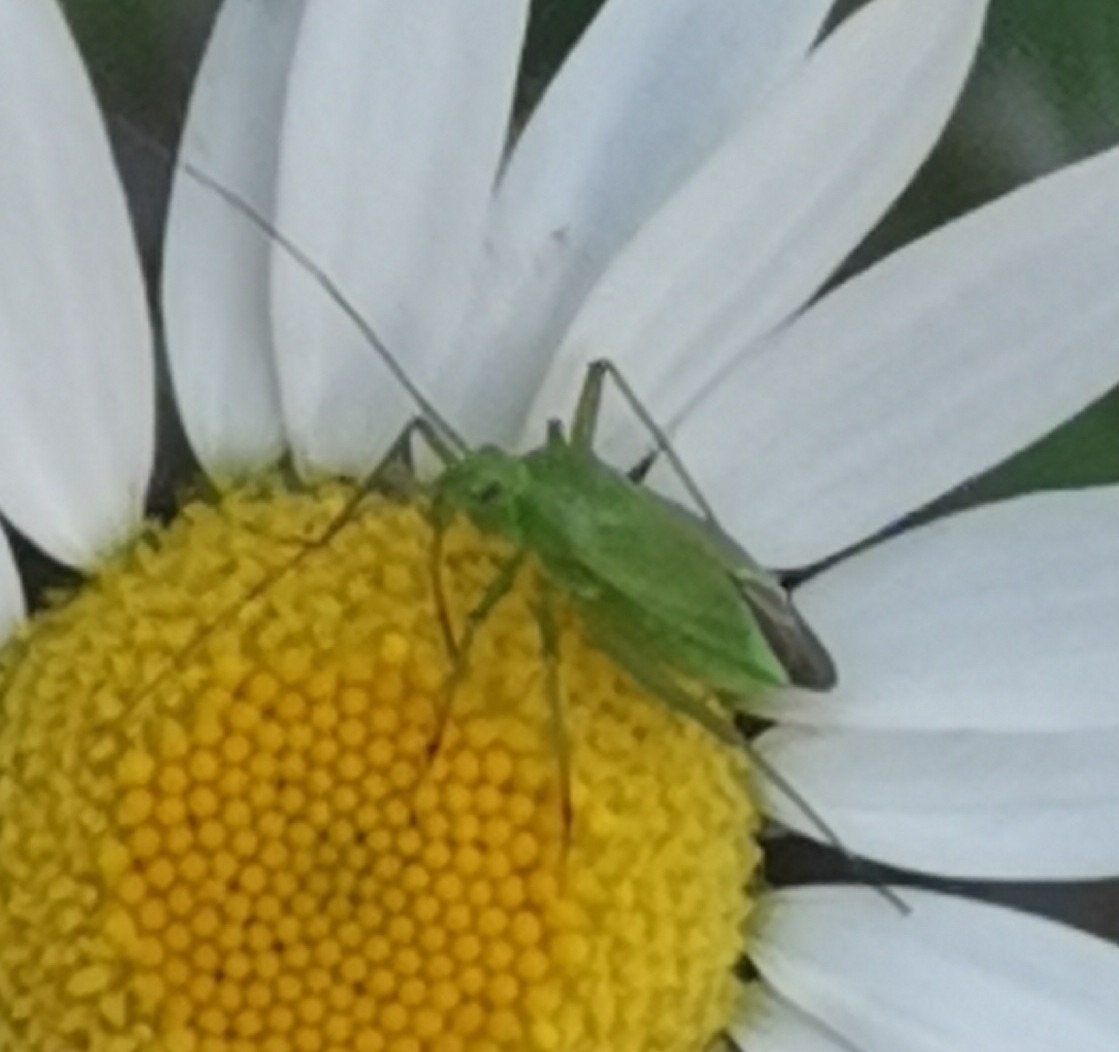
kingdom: Animalia
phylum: Arthropoda
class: Insecta
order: Hemiptera
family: Miridae
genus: Calocoris
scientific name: Calocoris affinis
